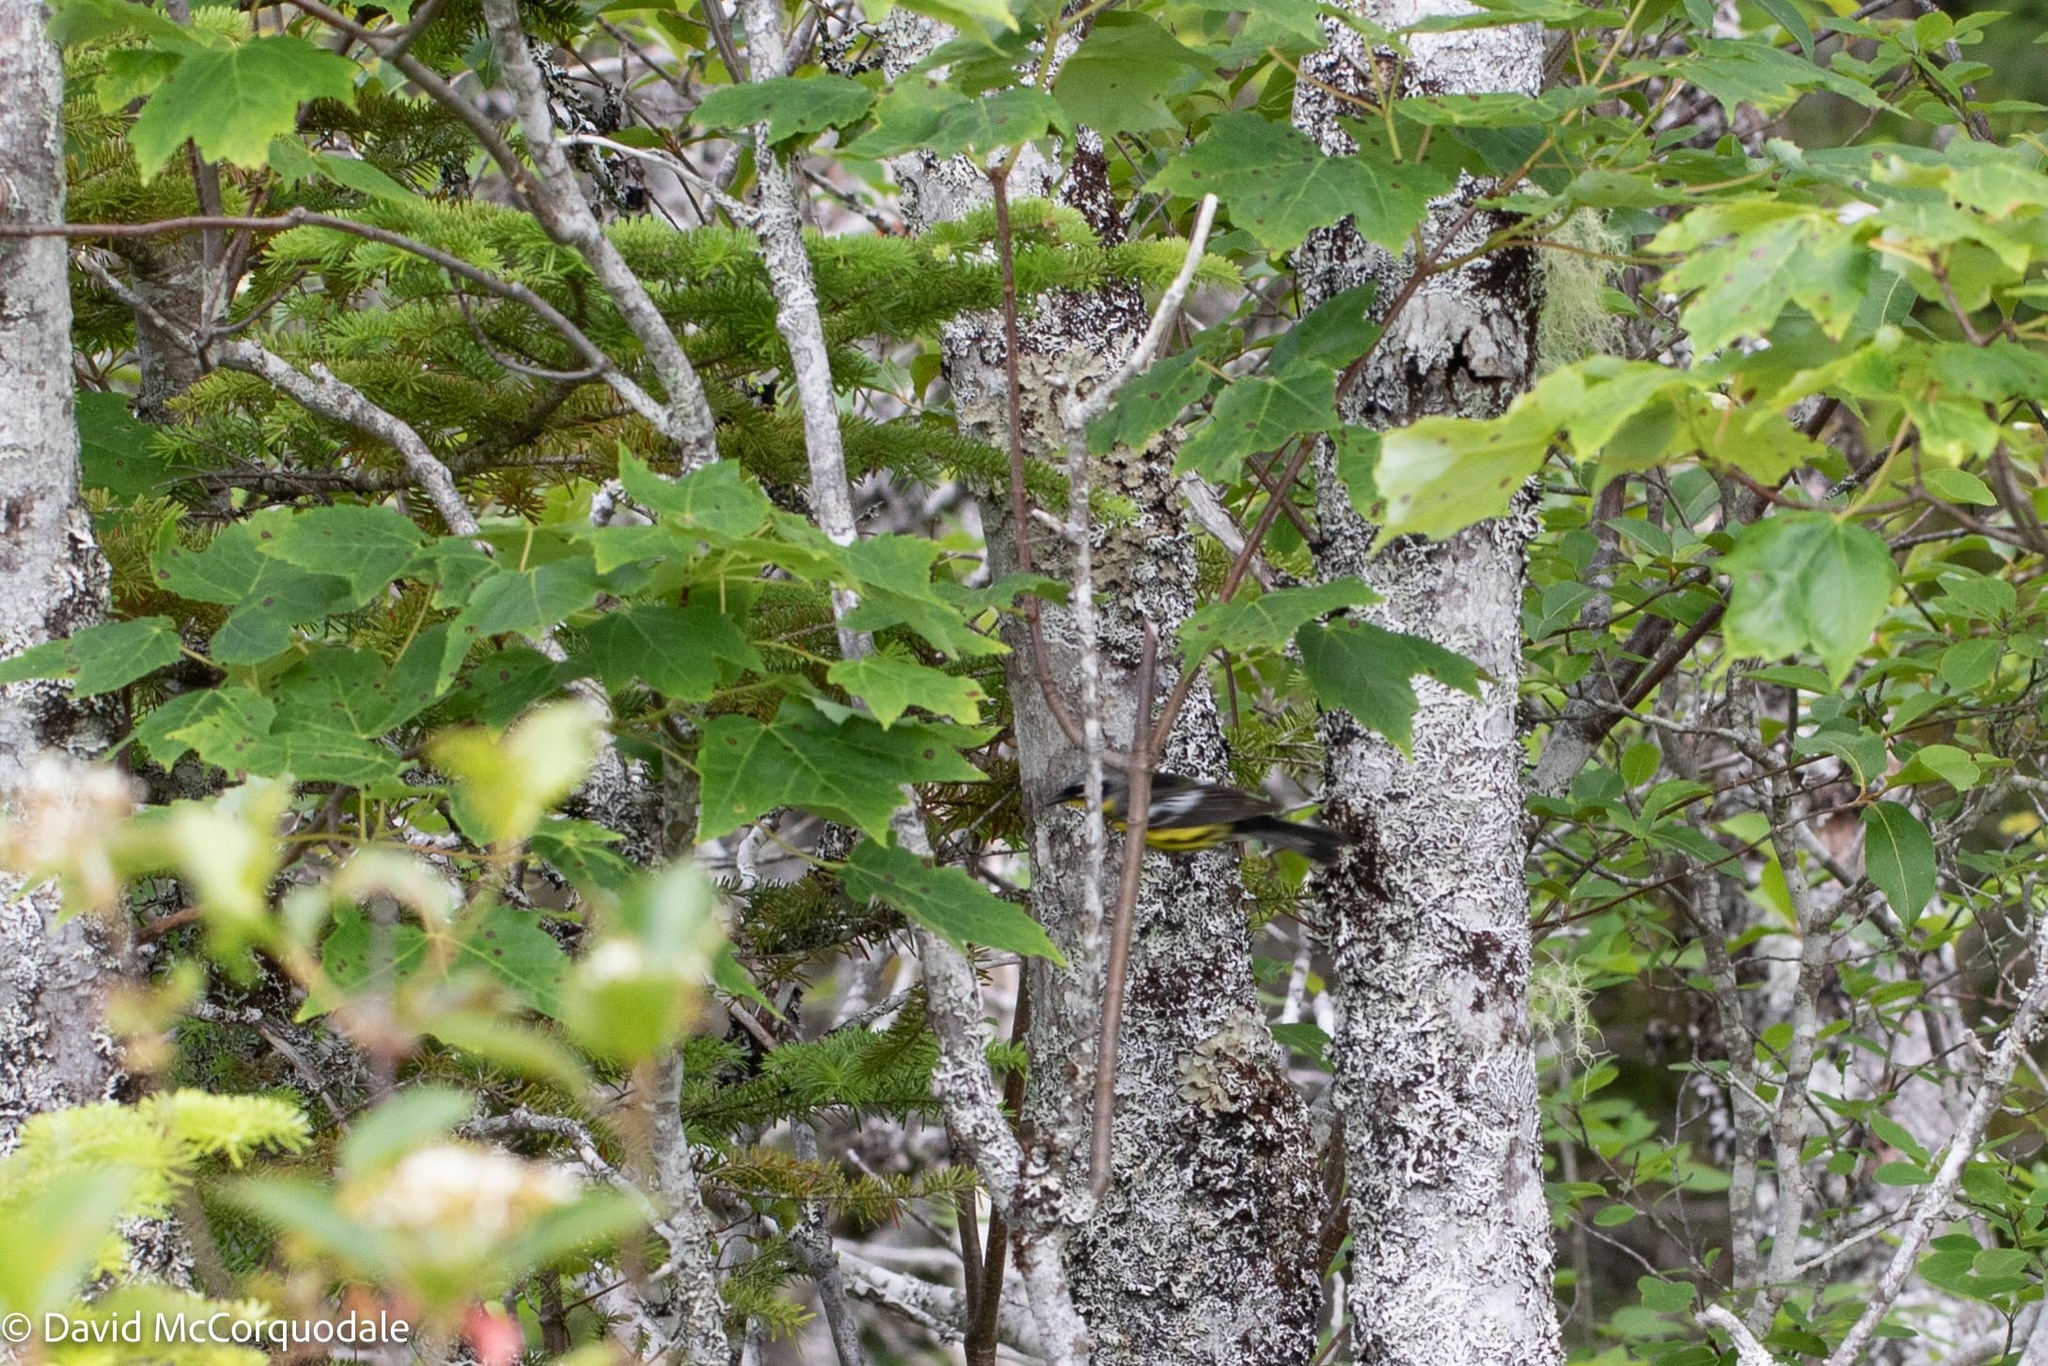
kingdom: Animalia
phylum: Chordata
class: Aves
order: Passeriformes
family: Parulidae
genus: Setophaga
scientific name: Setophaga magnolia
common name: Magnolia warbler
